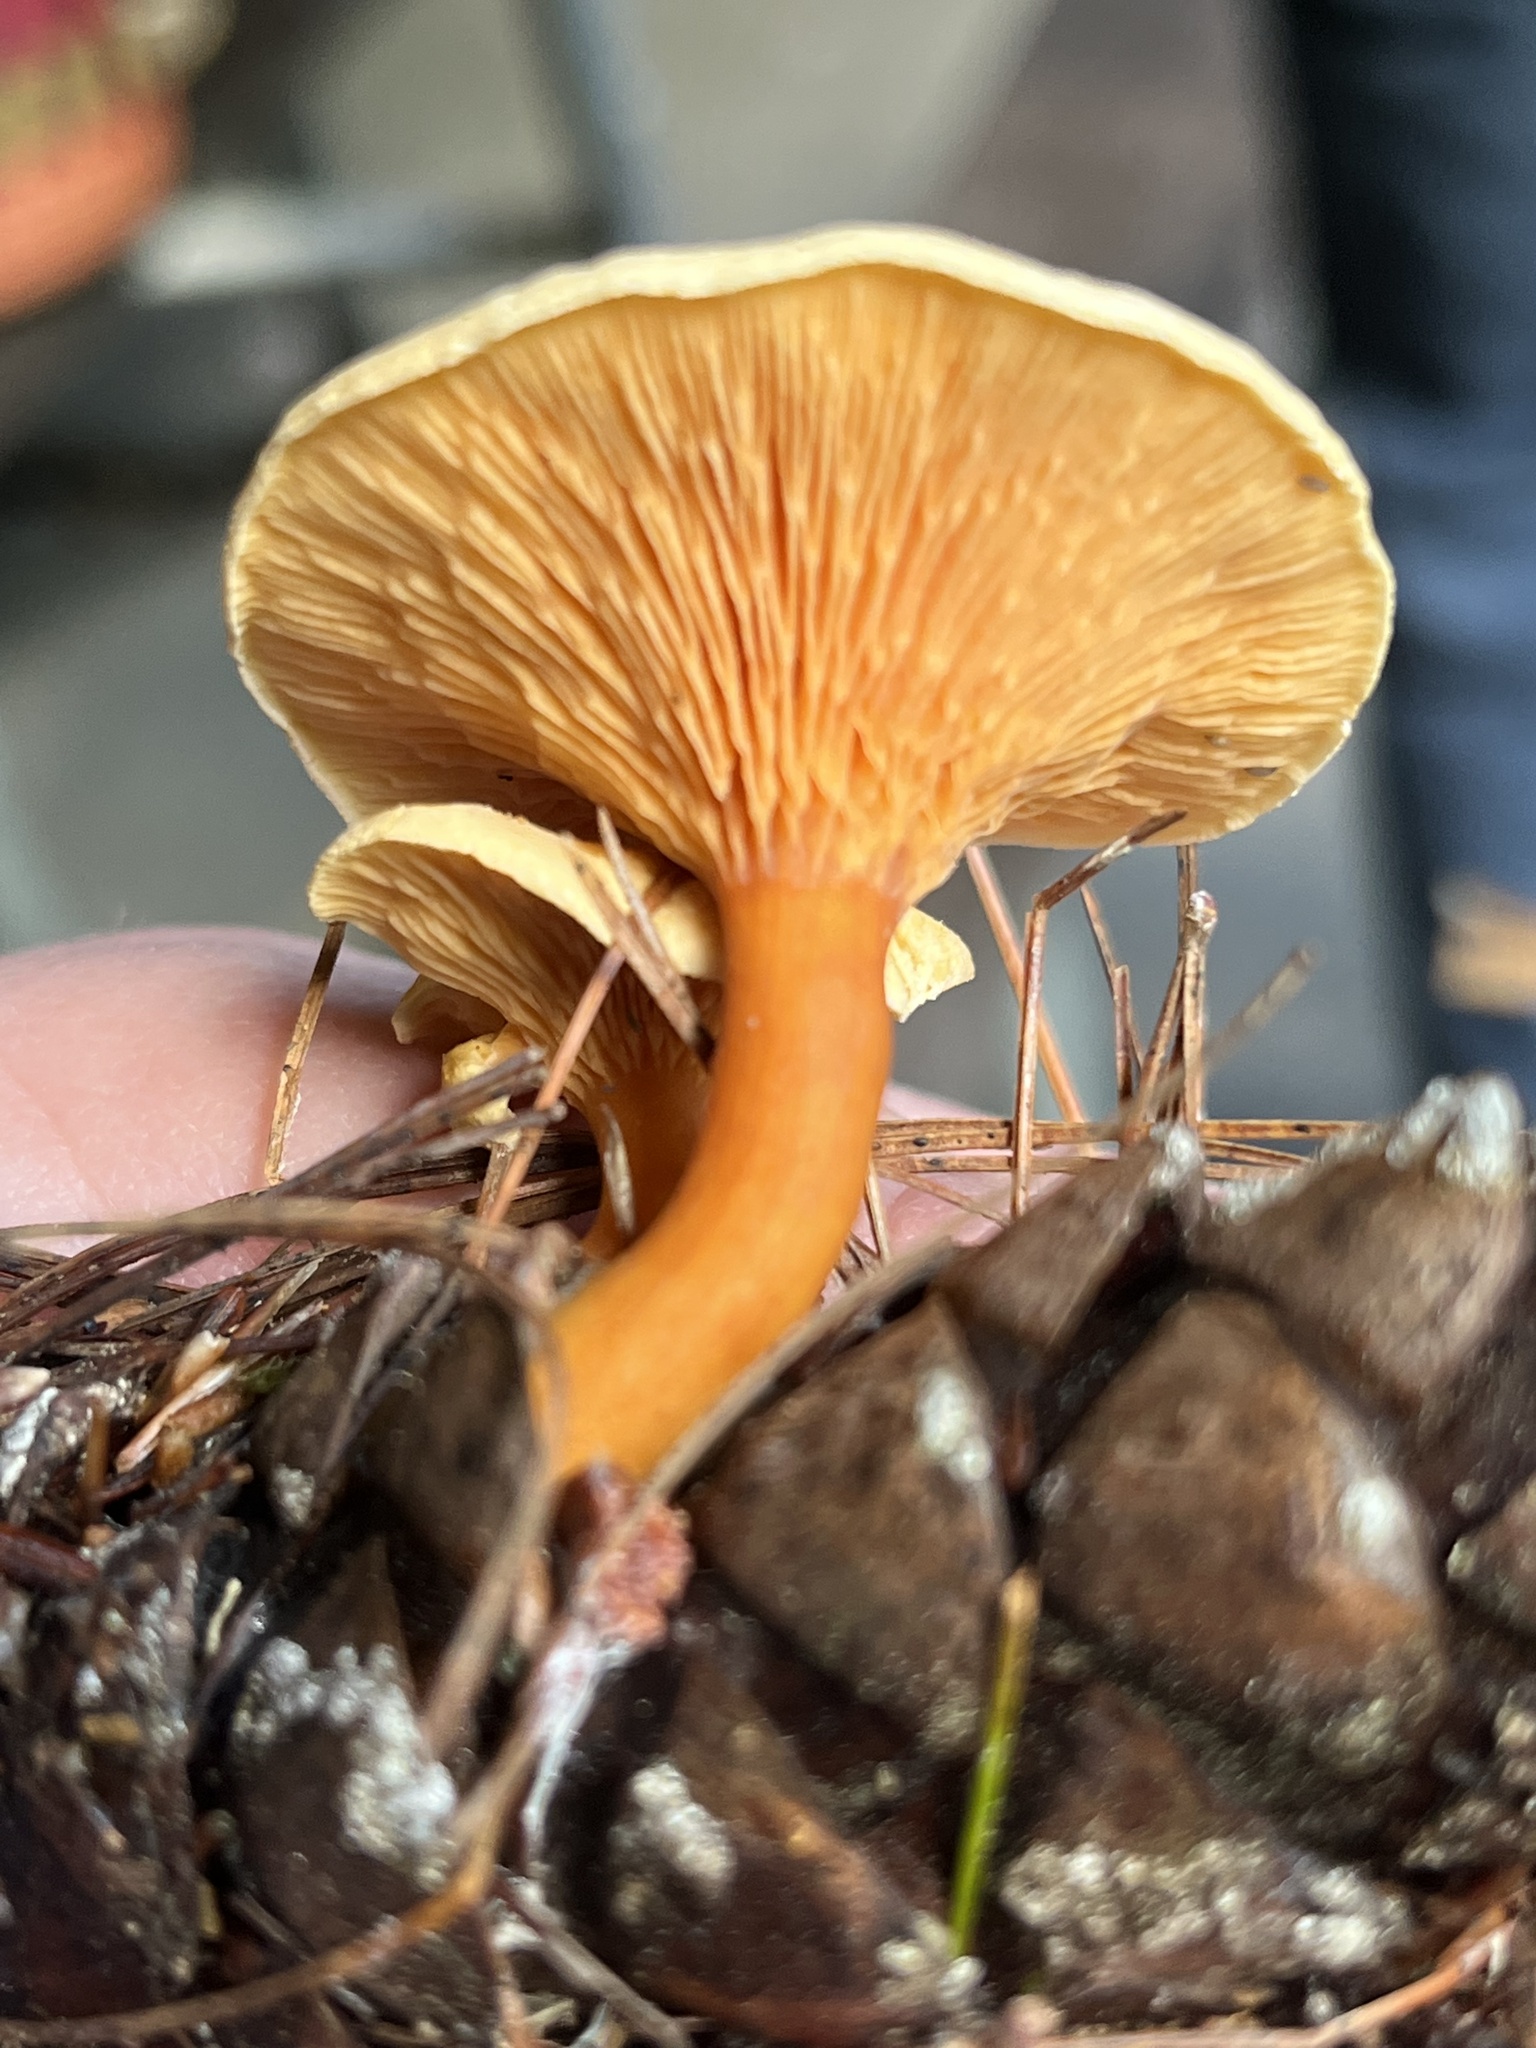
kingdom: Fungi
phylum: Basidiomycota
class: Agaricomycetes
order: Boletales
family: Hygrophoropsidaceae
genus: Hygrophoropsis
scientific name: Hygrophoropsis aurantiaca
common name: False chanterelle
